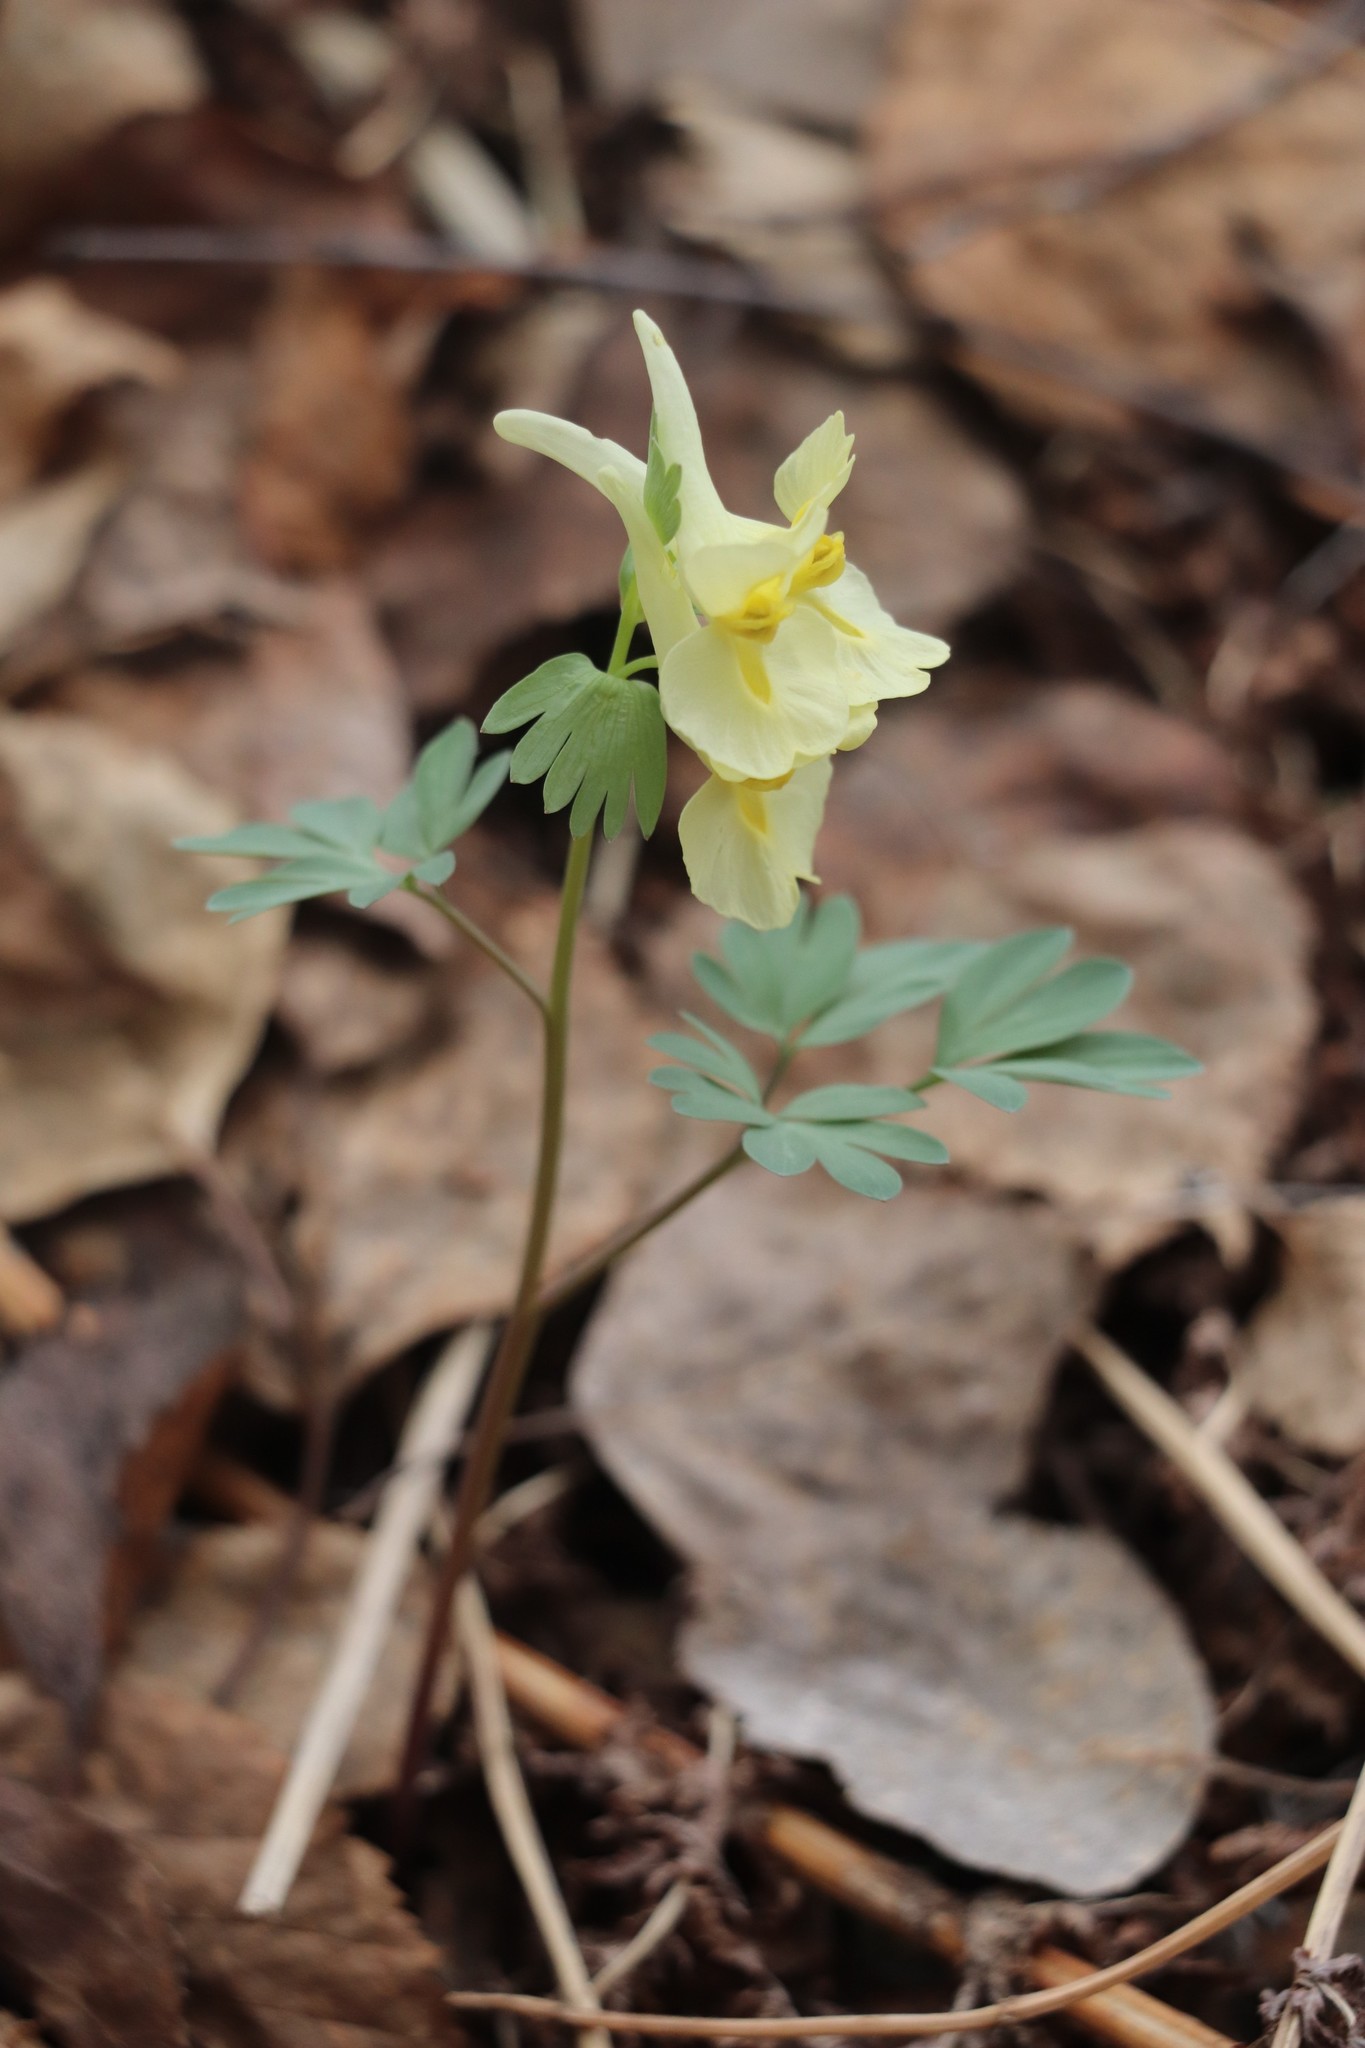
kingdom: Plantae
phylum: Tracheophyta
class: Magnoliopsida
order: Ranunculales
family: Papaveraceae
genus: Corydalis
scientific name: Corydalis bracteata
